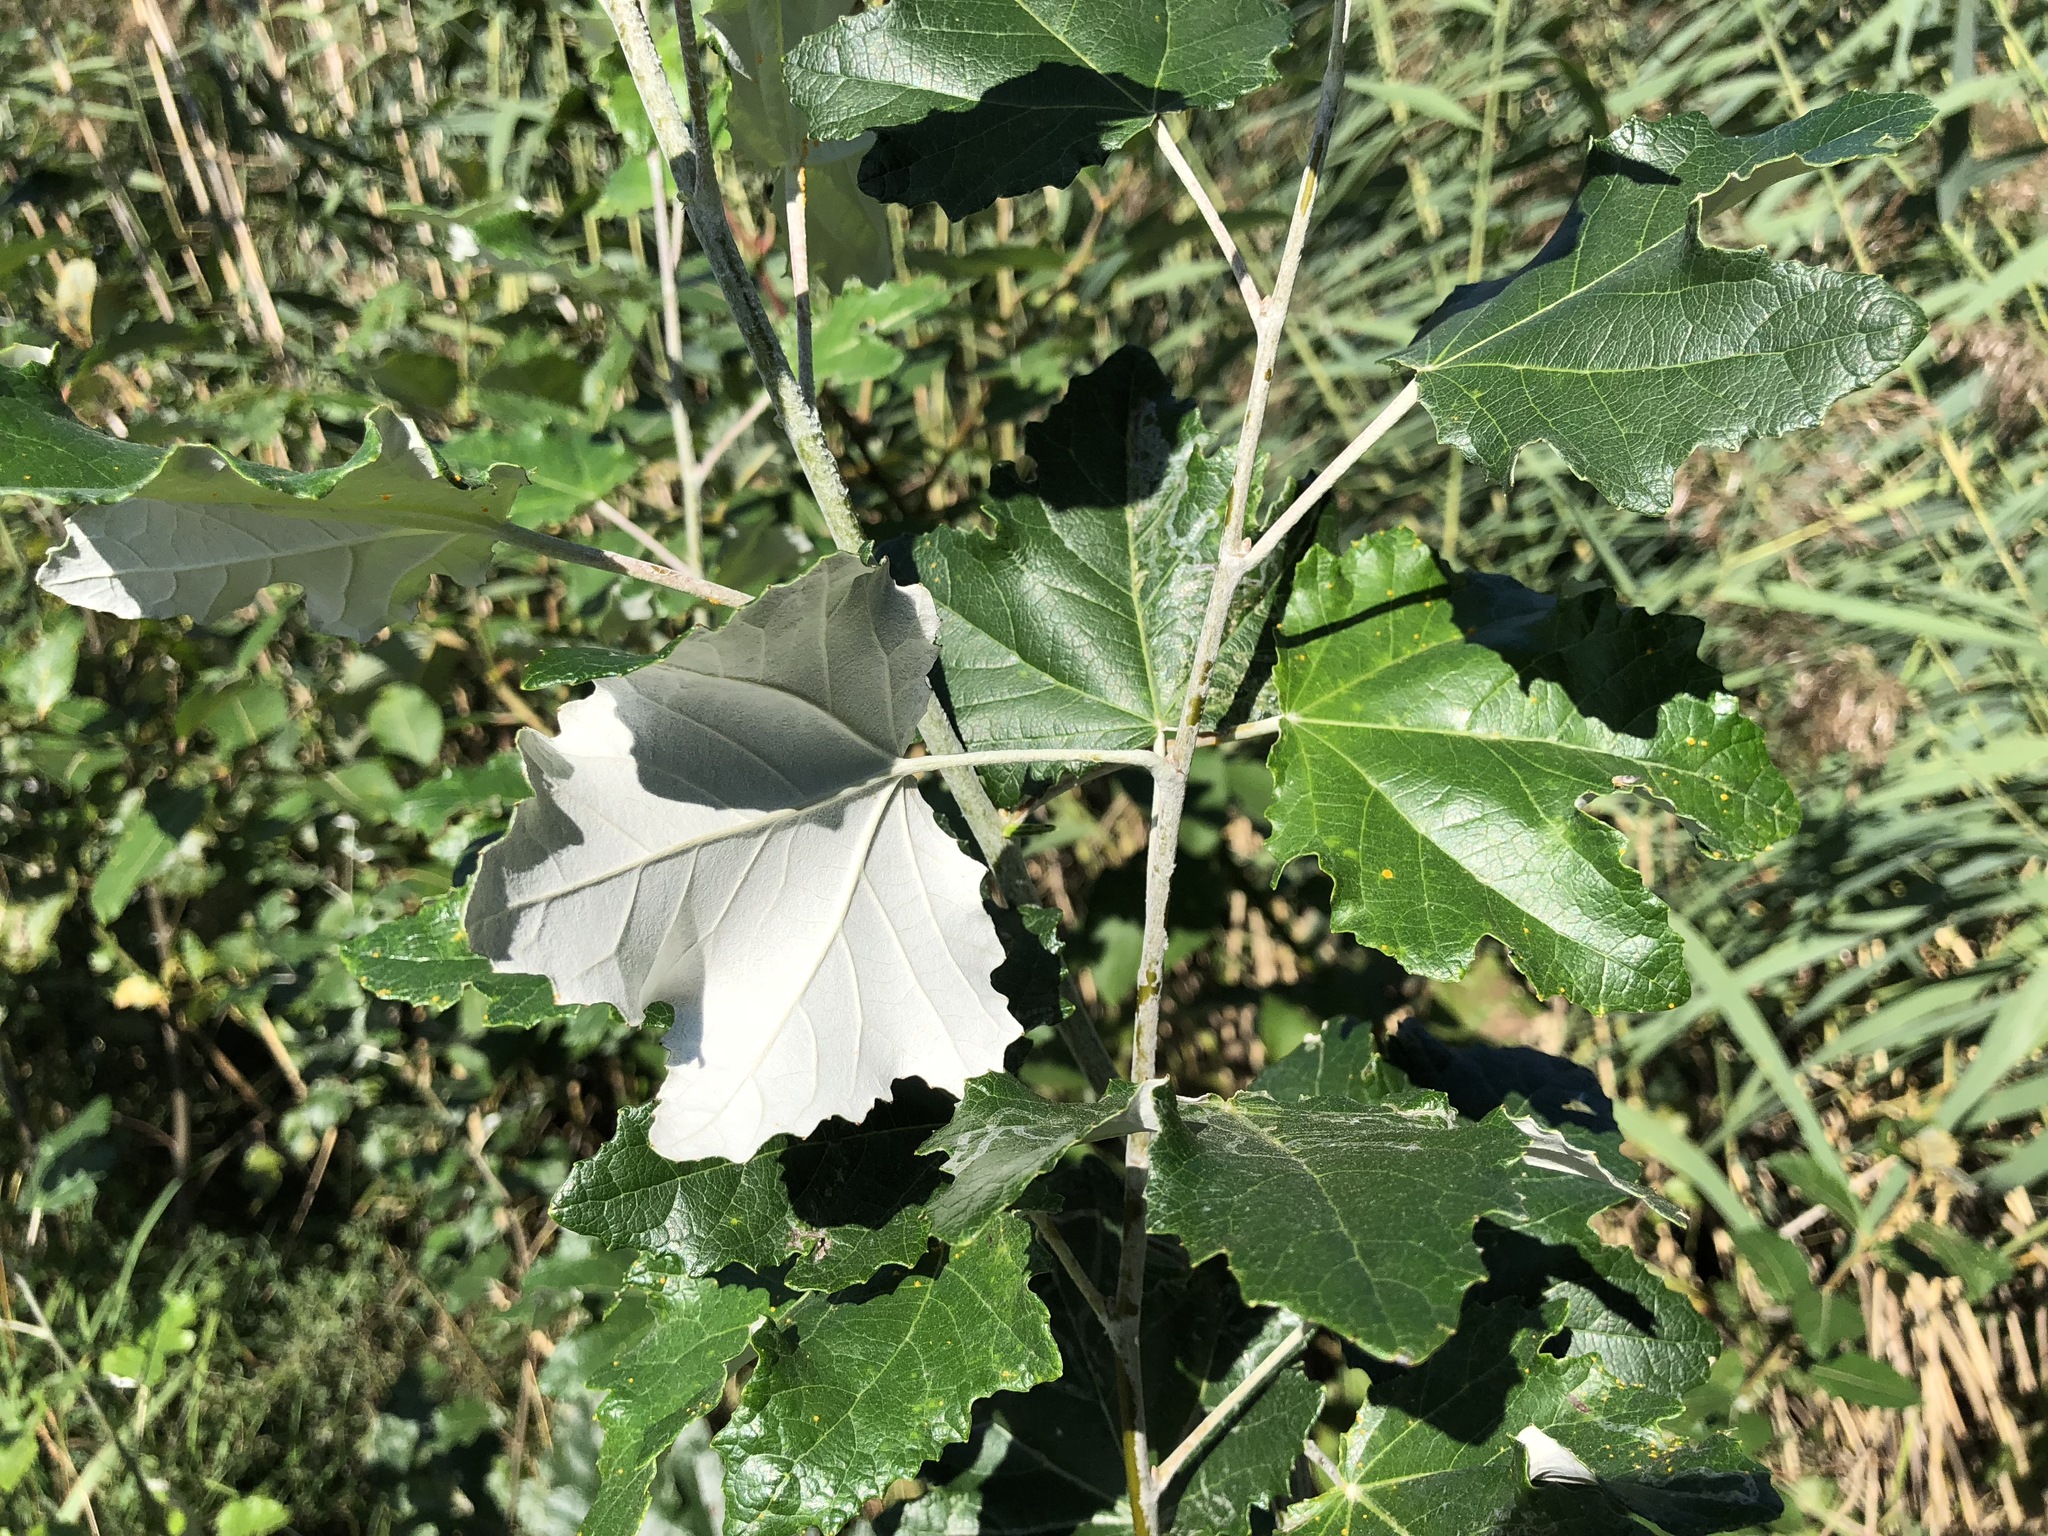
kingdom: Plantae
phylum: Tracheophyta
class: Magnoliopsida
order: Malpighiales
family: Salicaceae
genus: Populus
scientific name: Populus alba
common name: White poplar
